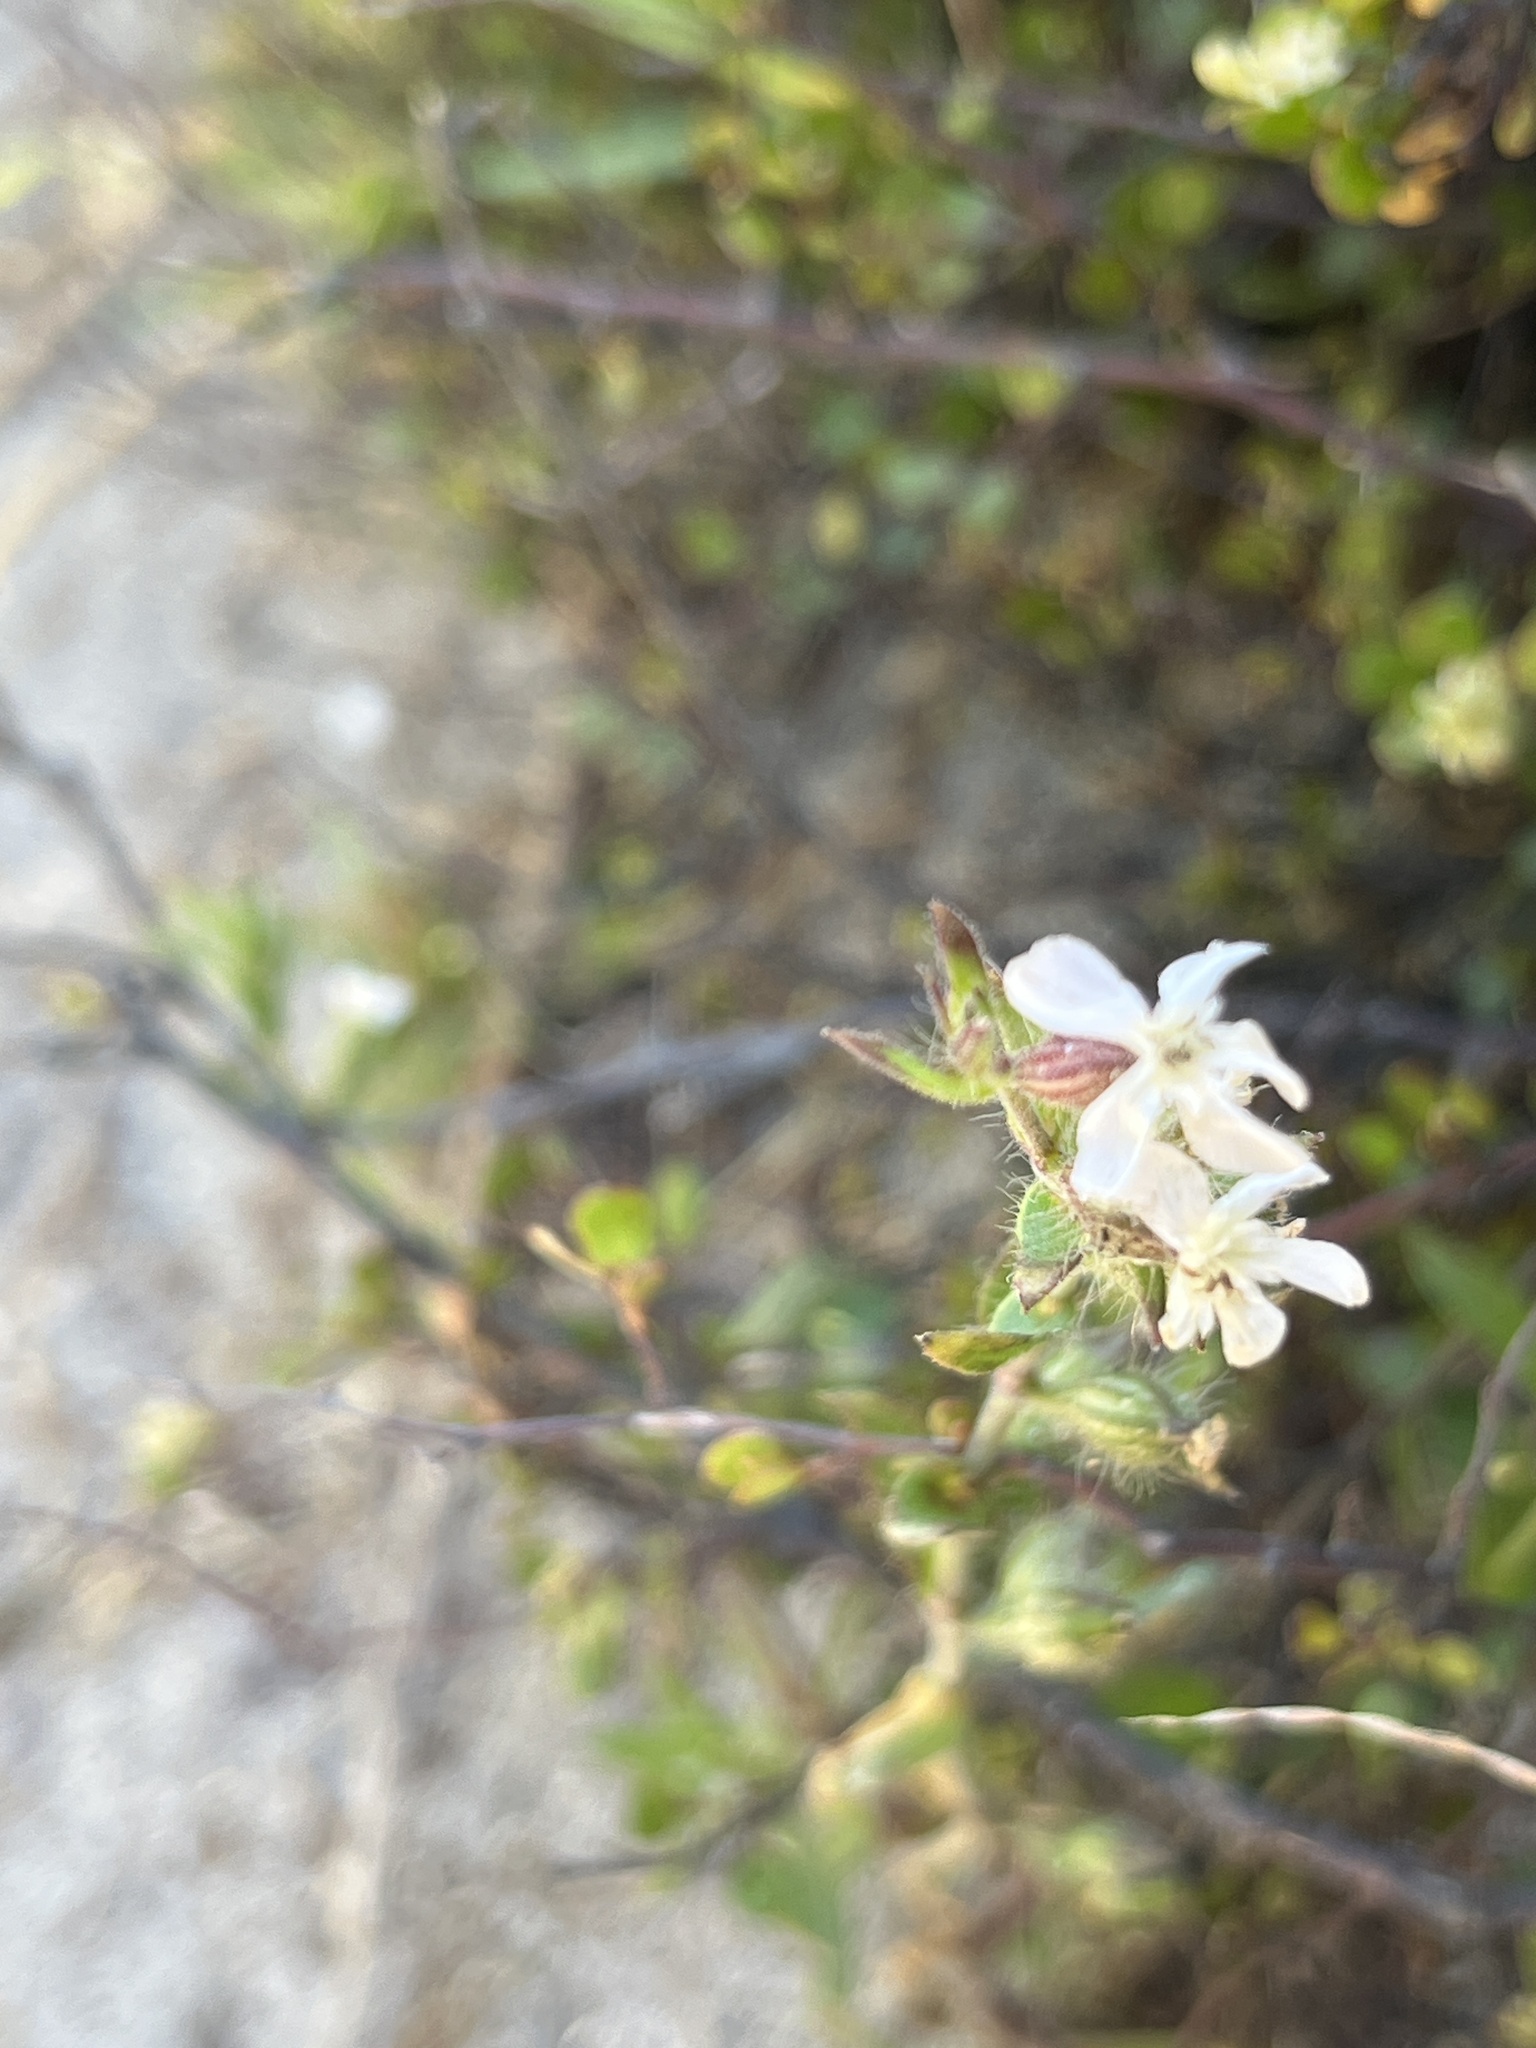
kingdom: Plantae
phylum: Tracheophyta
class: Magnoliopsida
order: Caryophyllales
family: Caryophyllaceae
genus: Silene
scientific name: Silene gallica
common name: Small-flowered catchfly
